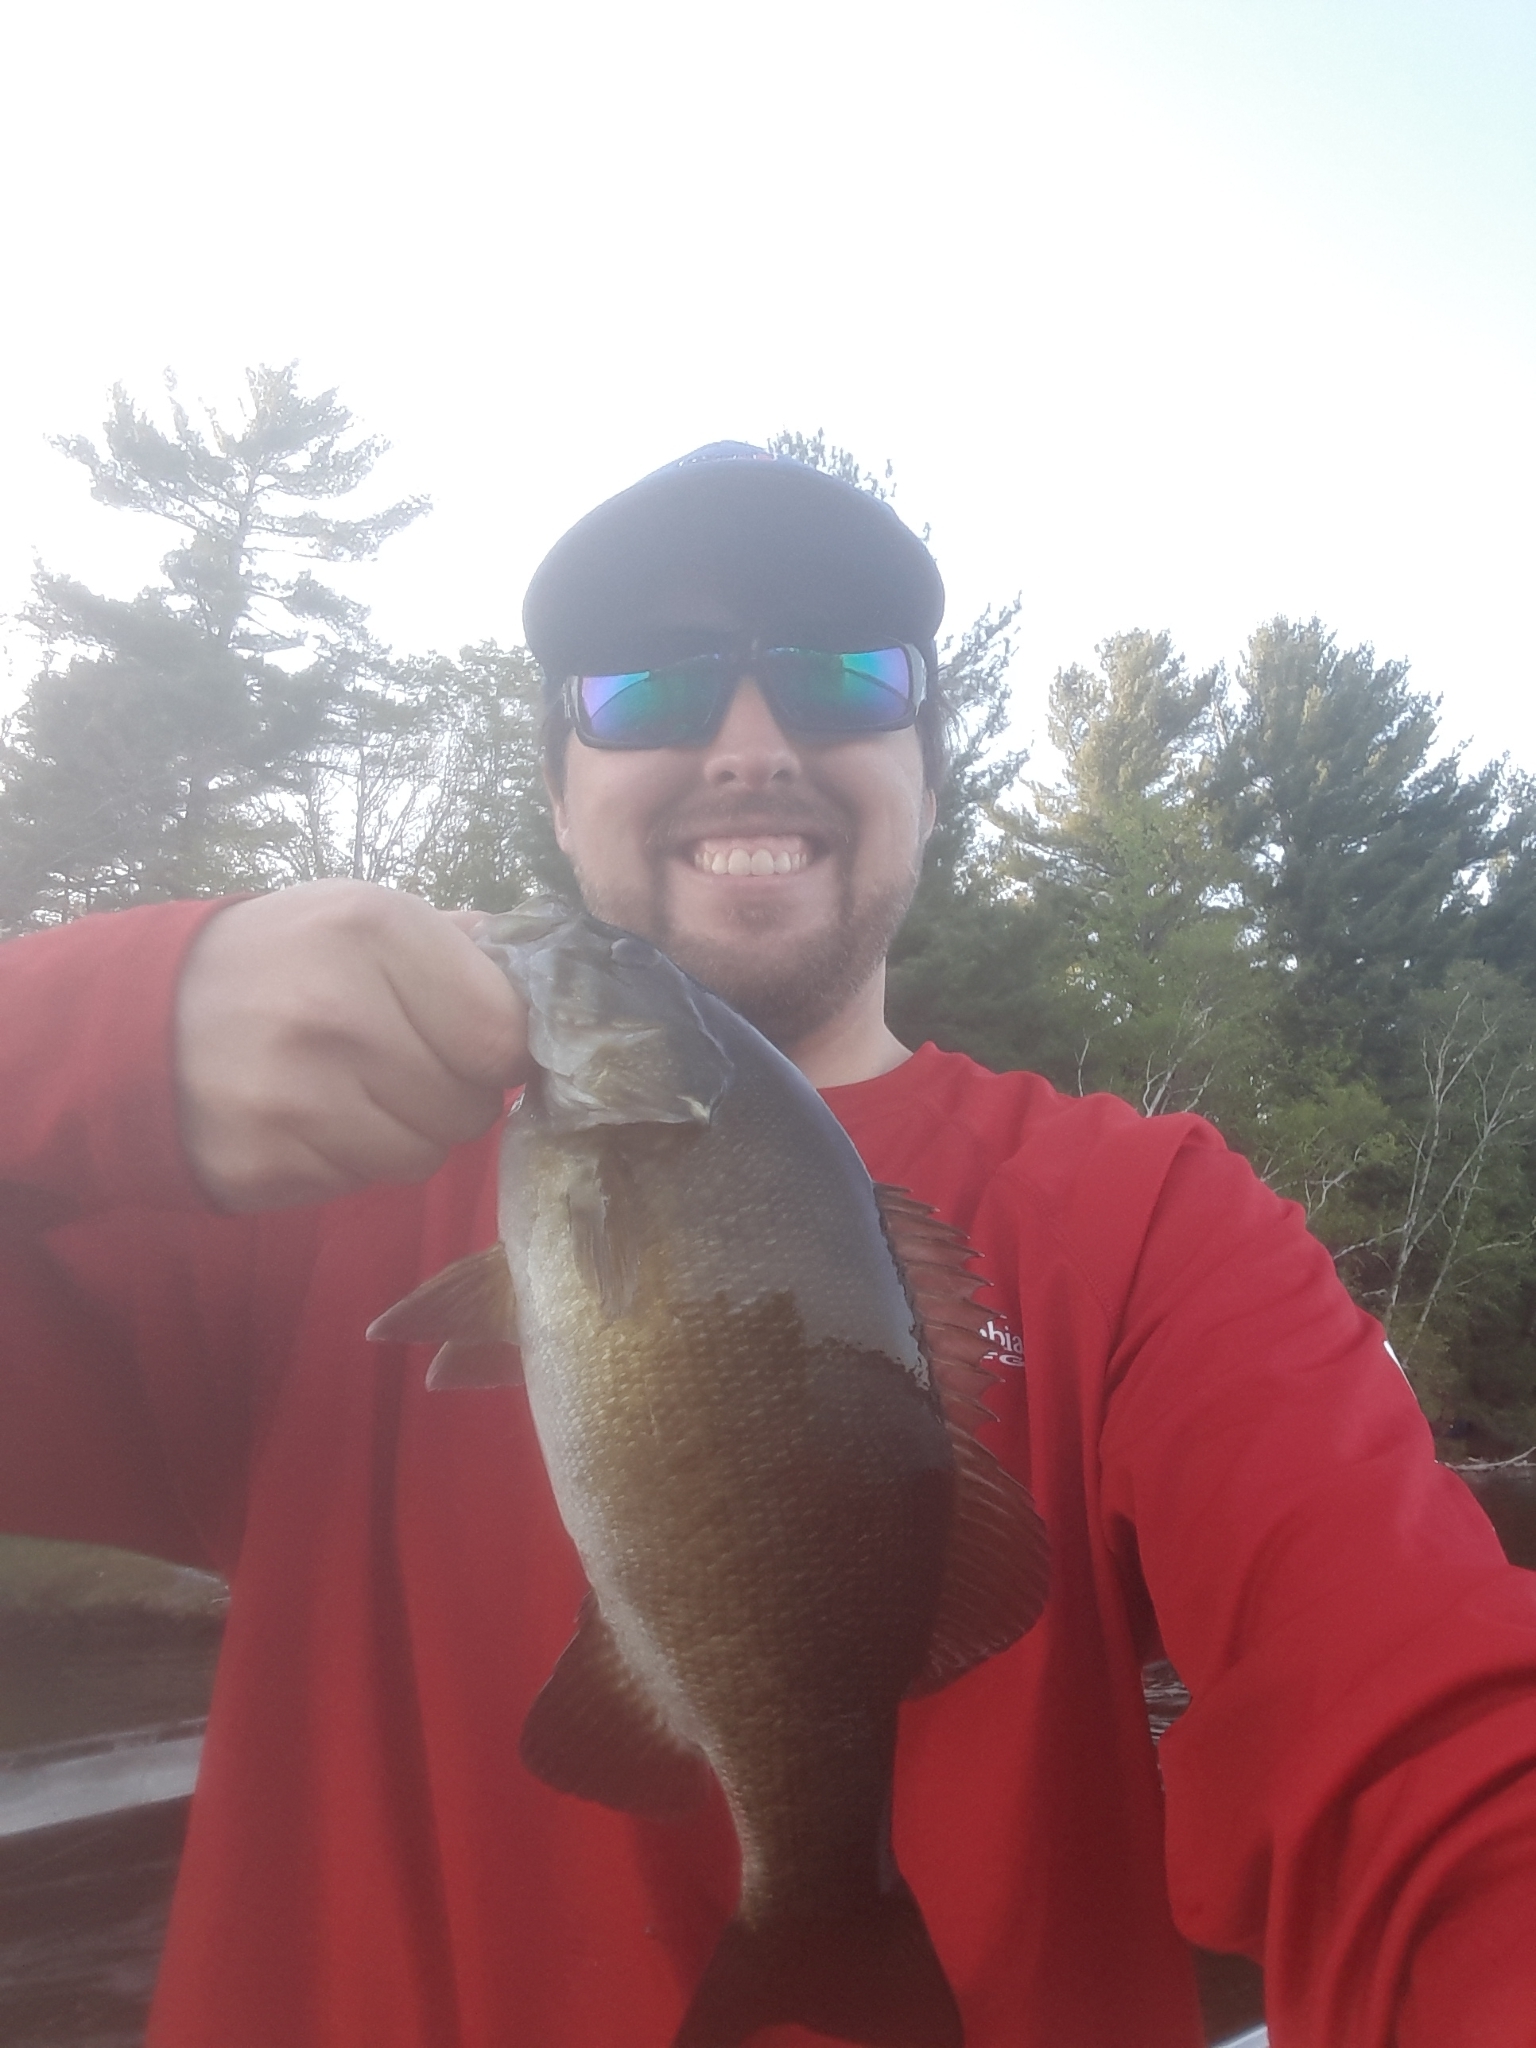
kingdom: Animalia
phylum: Chordata
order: Perciformes
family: Centrarchidae
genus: Micropterus
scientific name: Micropterus dolomieu
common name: Smallmouth bass
